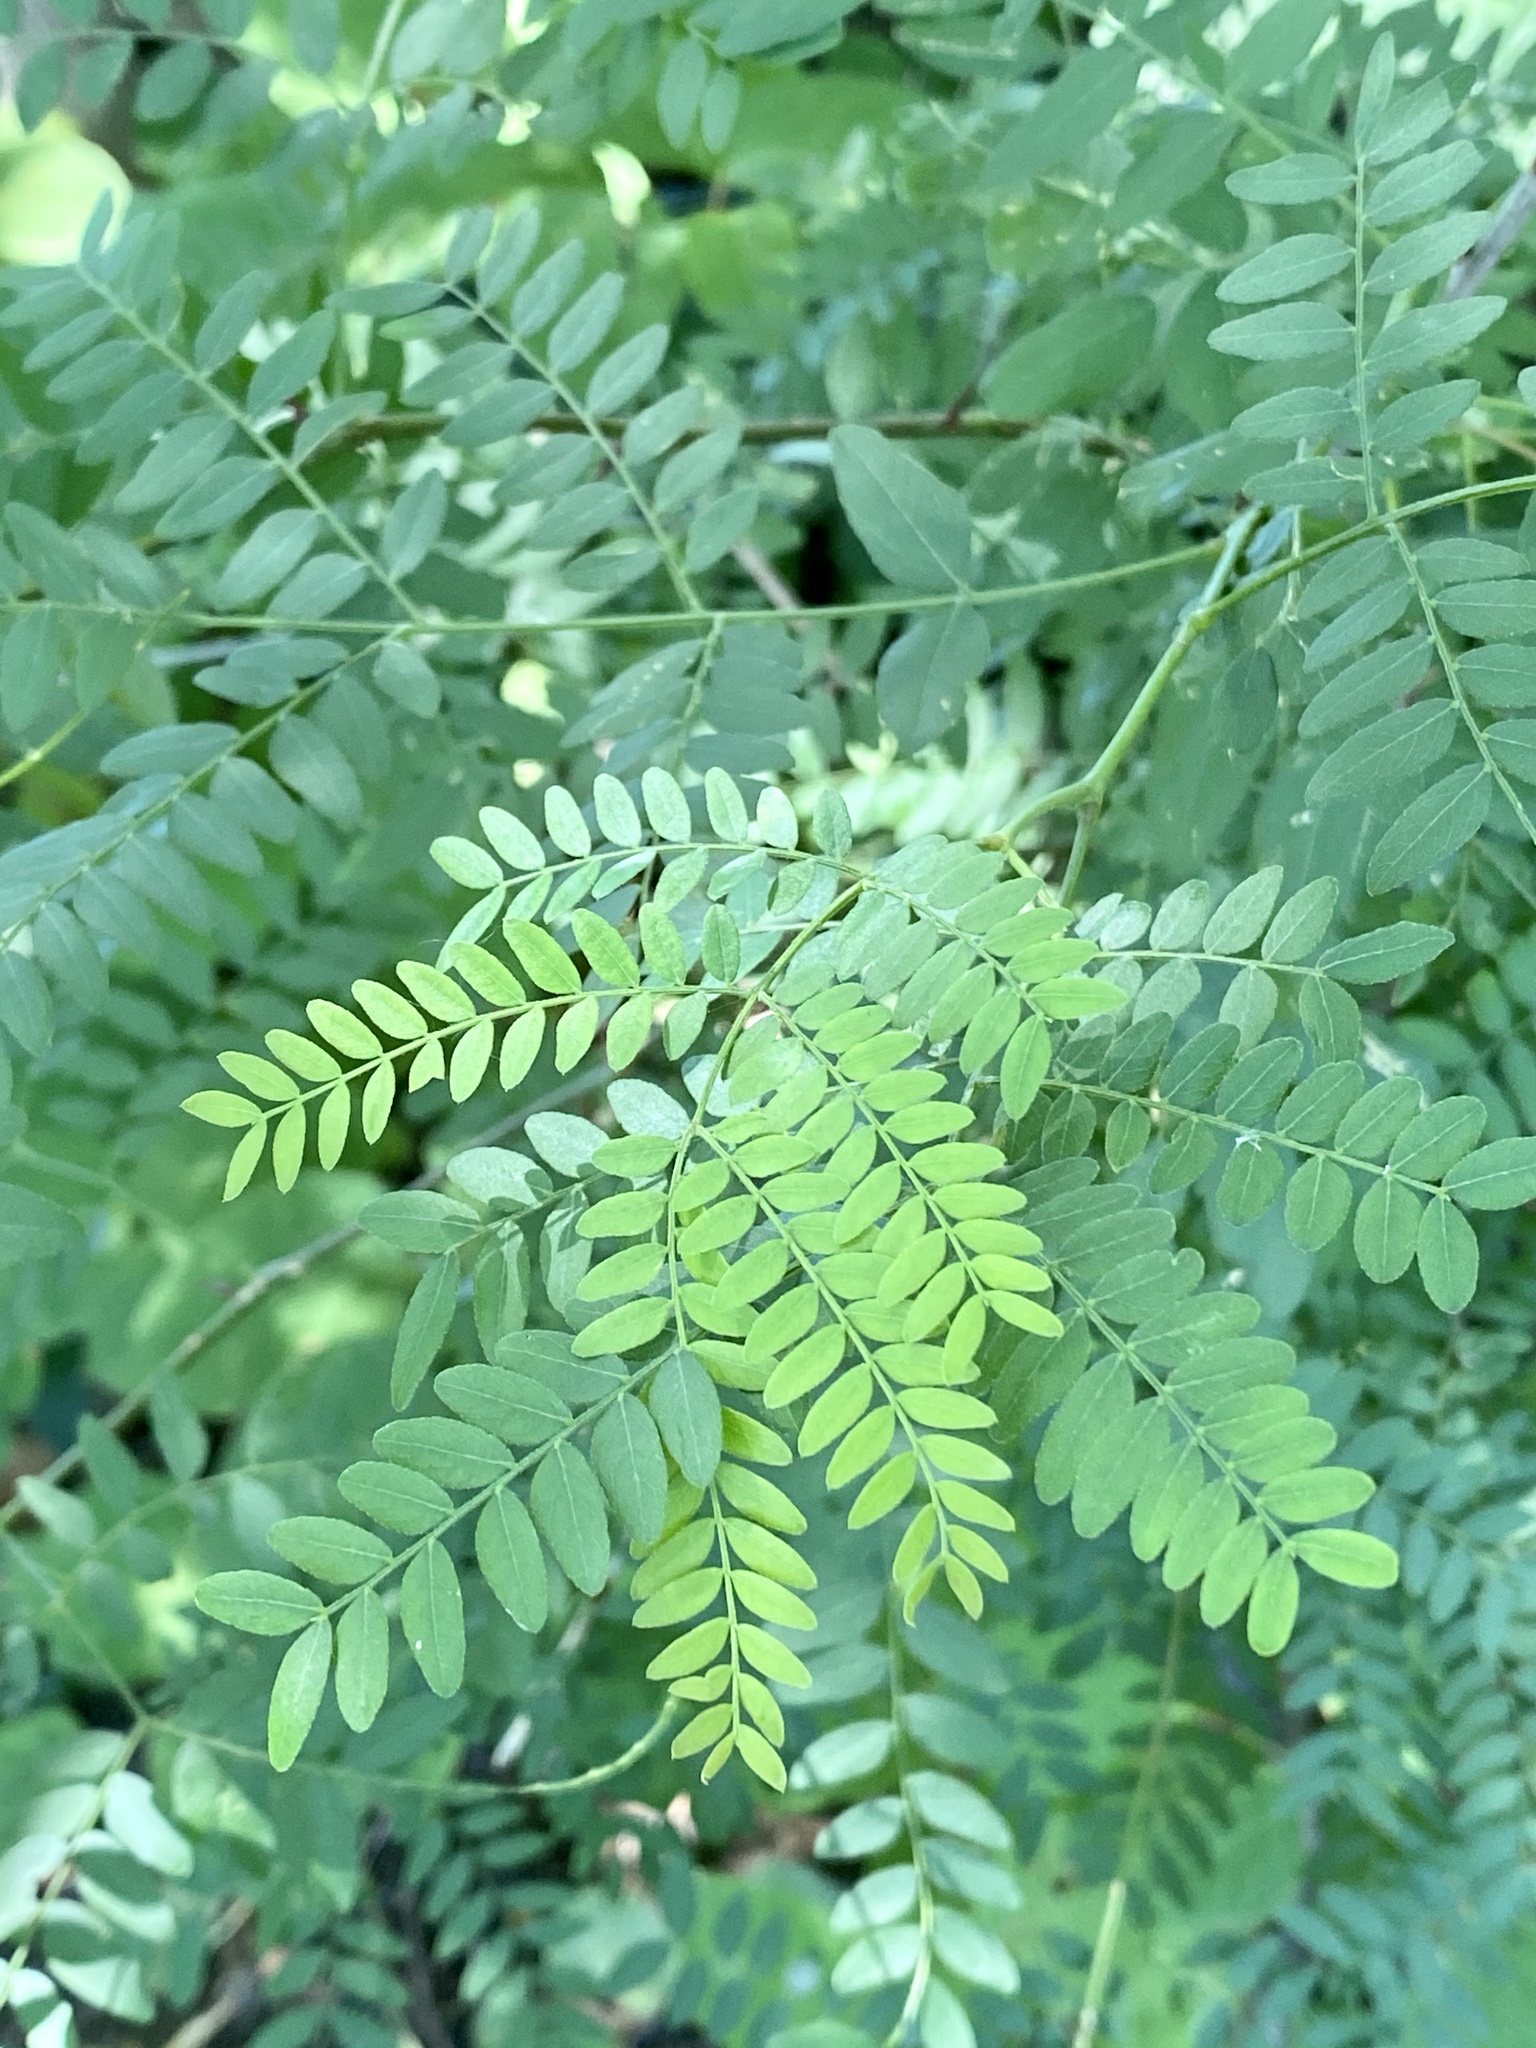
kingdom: Plantae
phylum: Tracheophyta
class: Magnoliopsida
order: Fabales
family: Fabaceae
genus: Gleditsia
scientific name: Gleditsia triacanthos
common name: Common honeylocust
